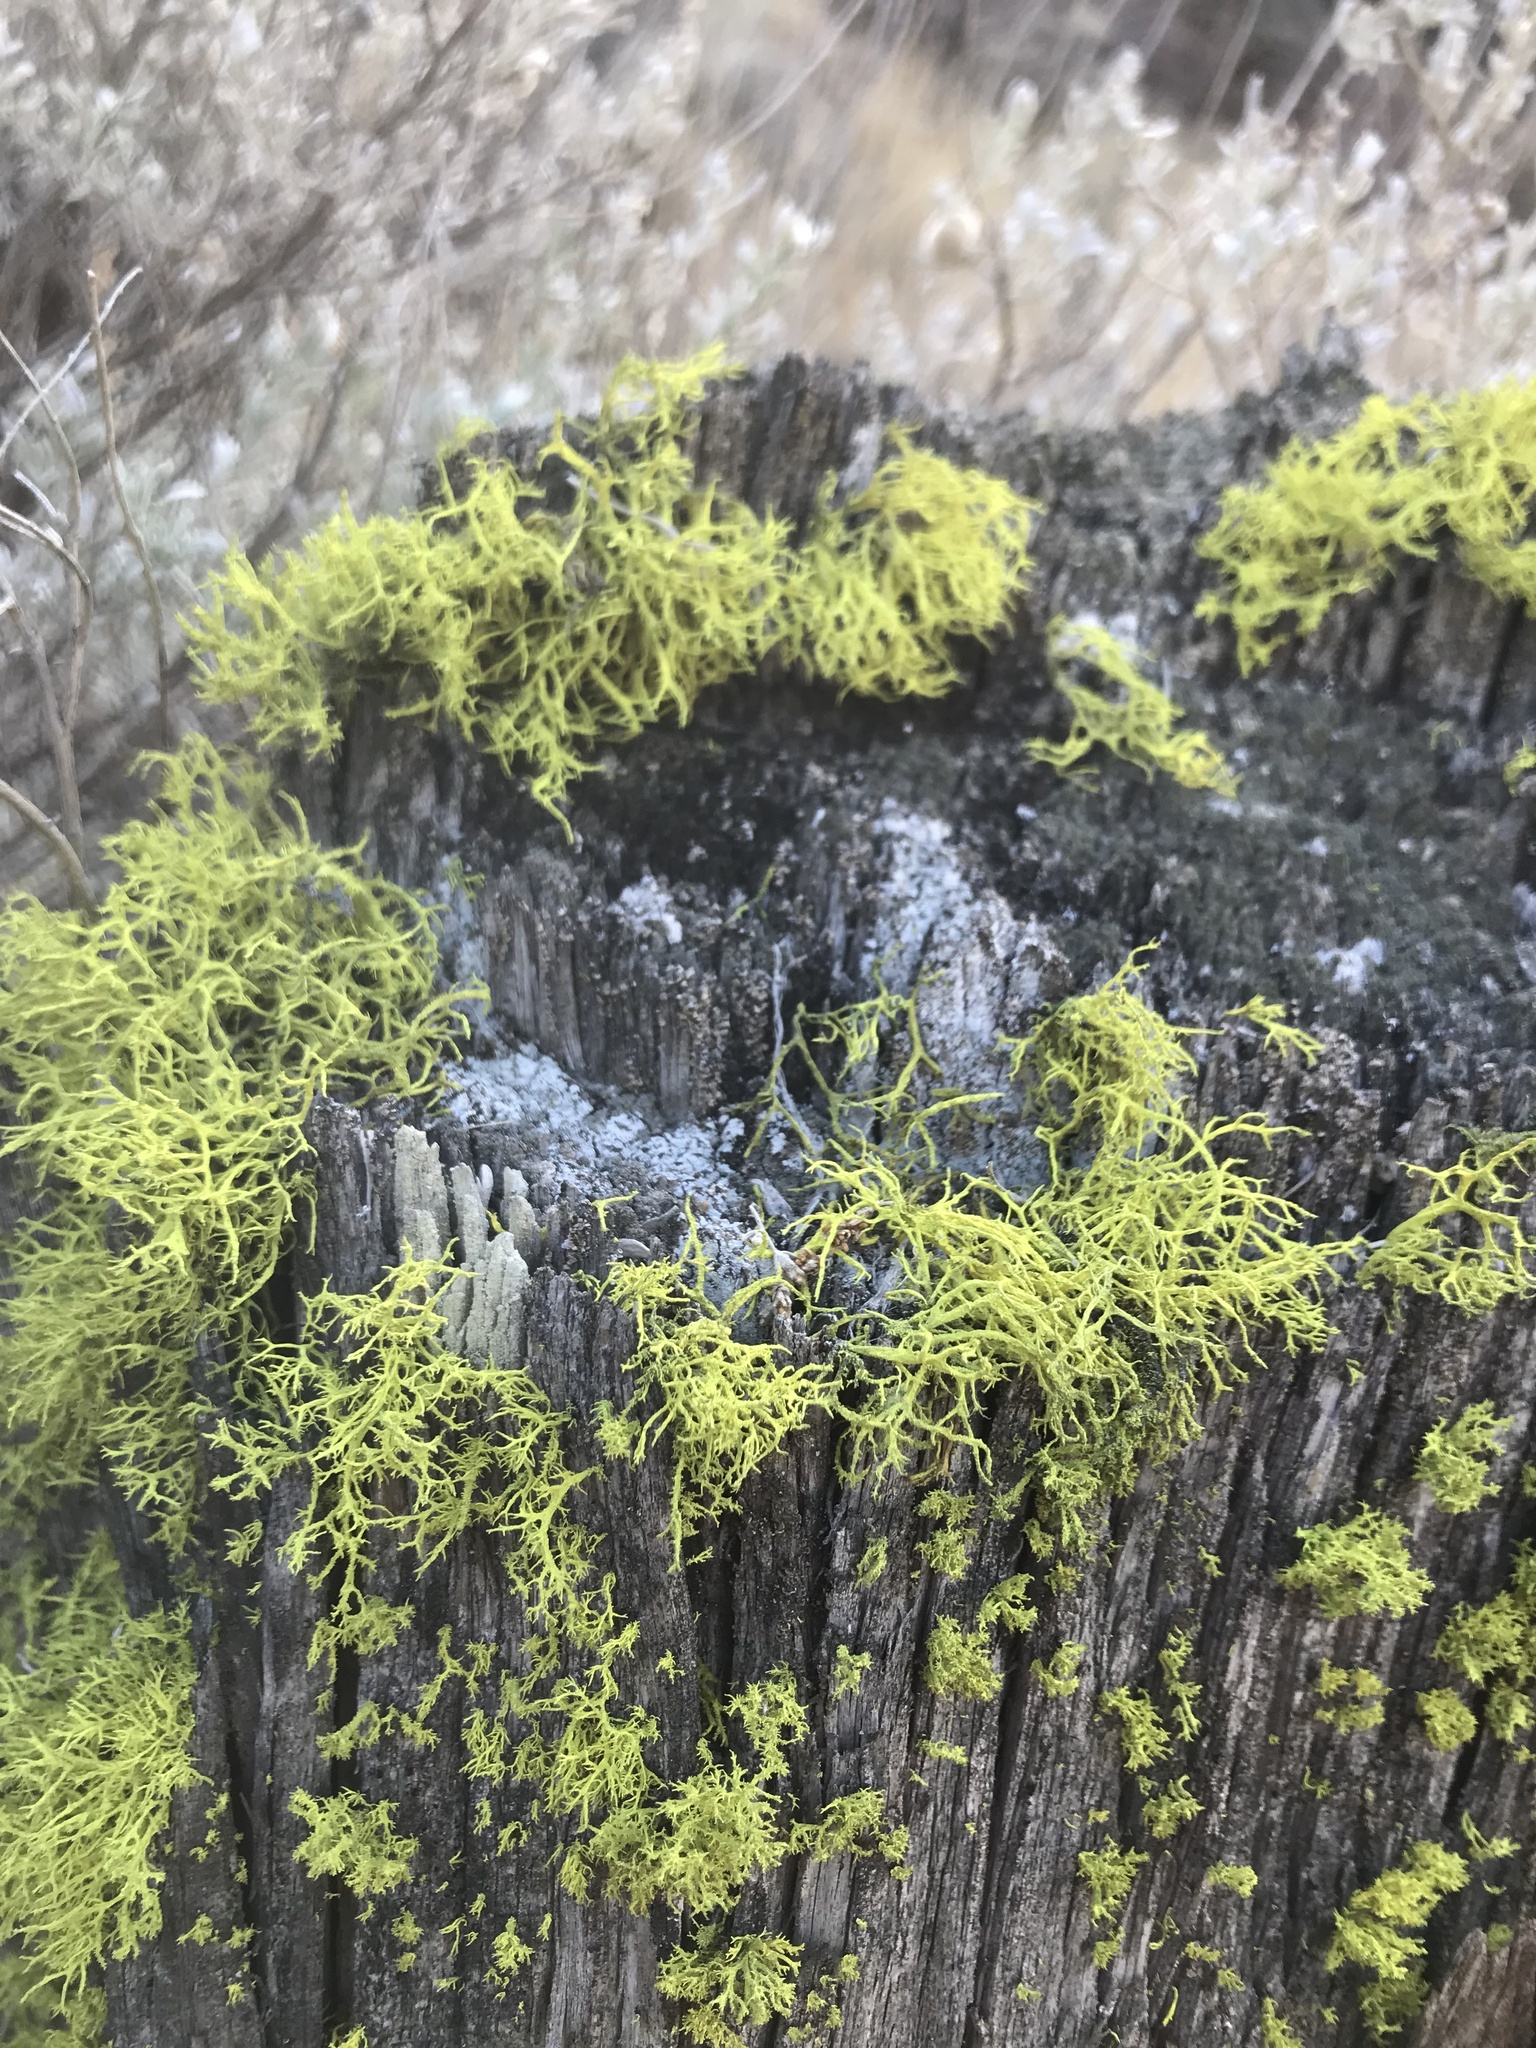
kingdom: Fungi
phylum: Ascomycota
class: Lecanoromycetes
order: Lecanorales
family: Parmeliaceae
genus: Letharia
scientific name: Letharia vulpina
